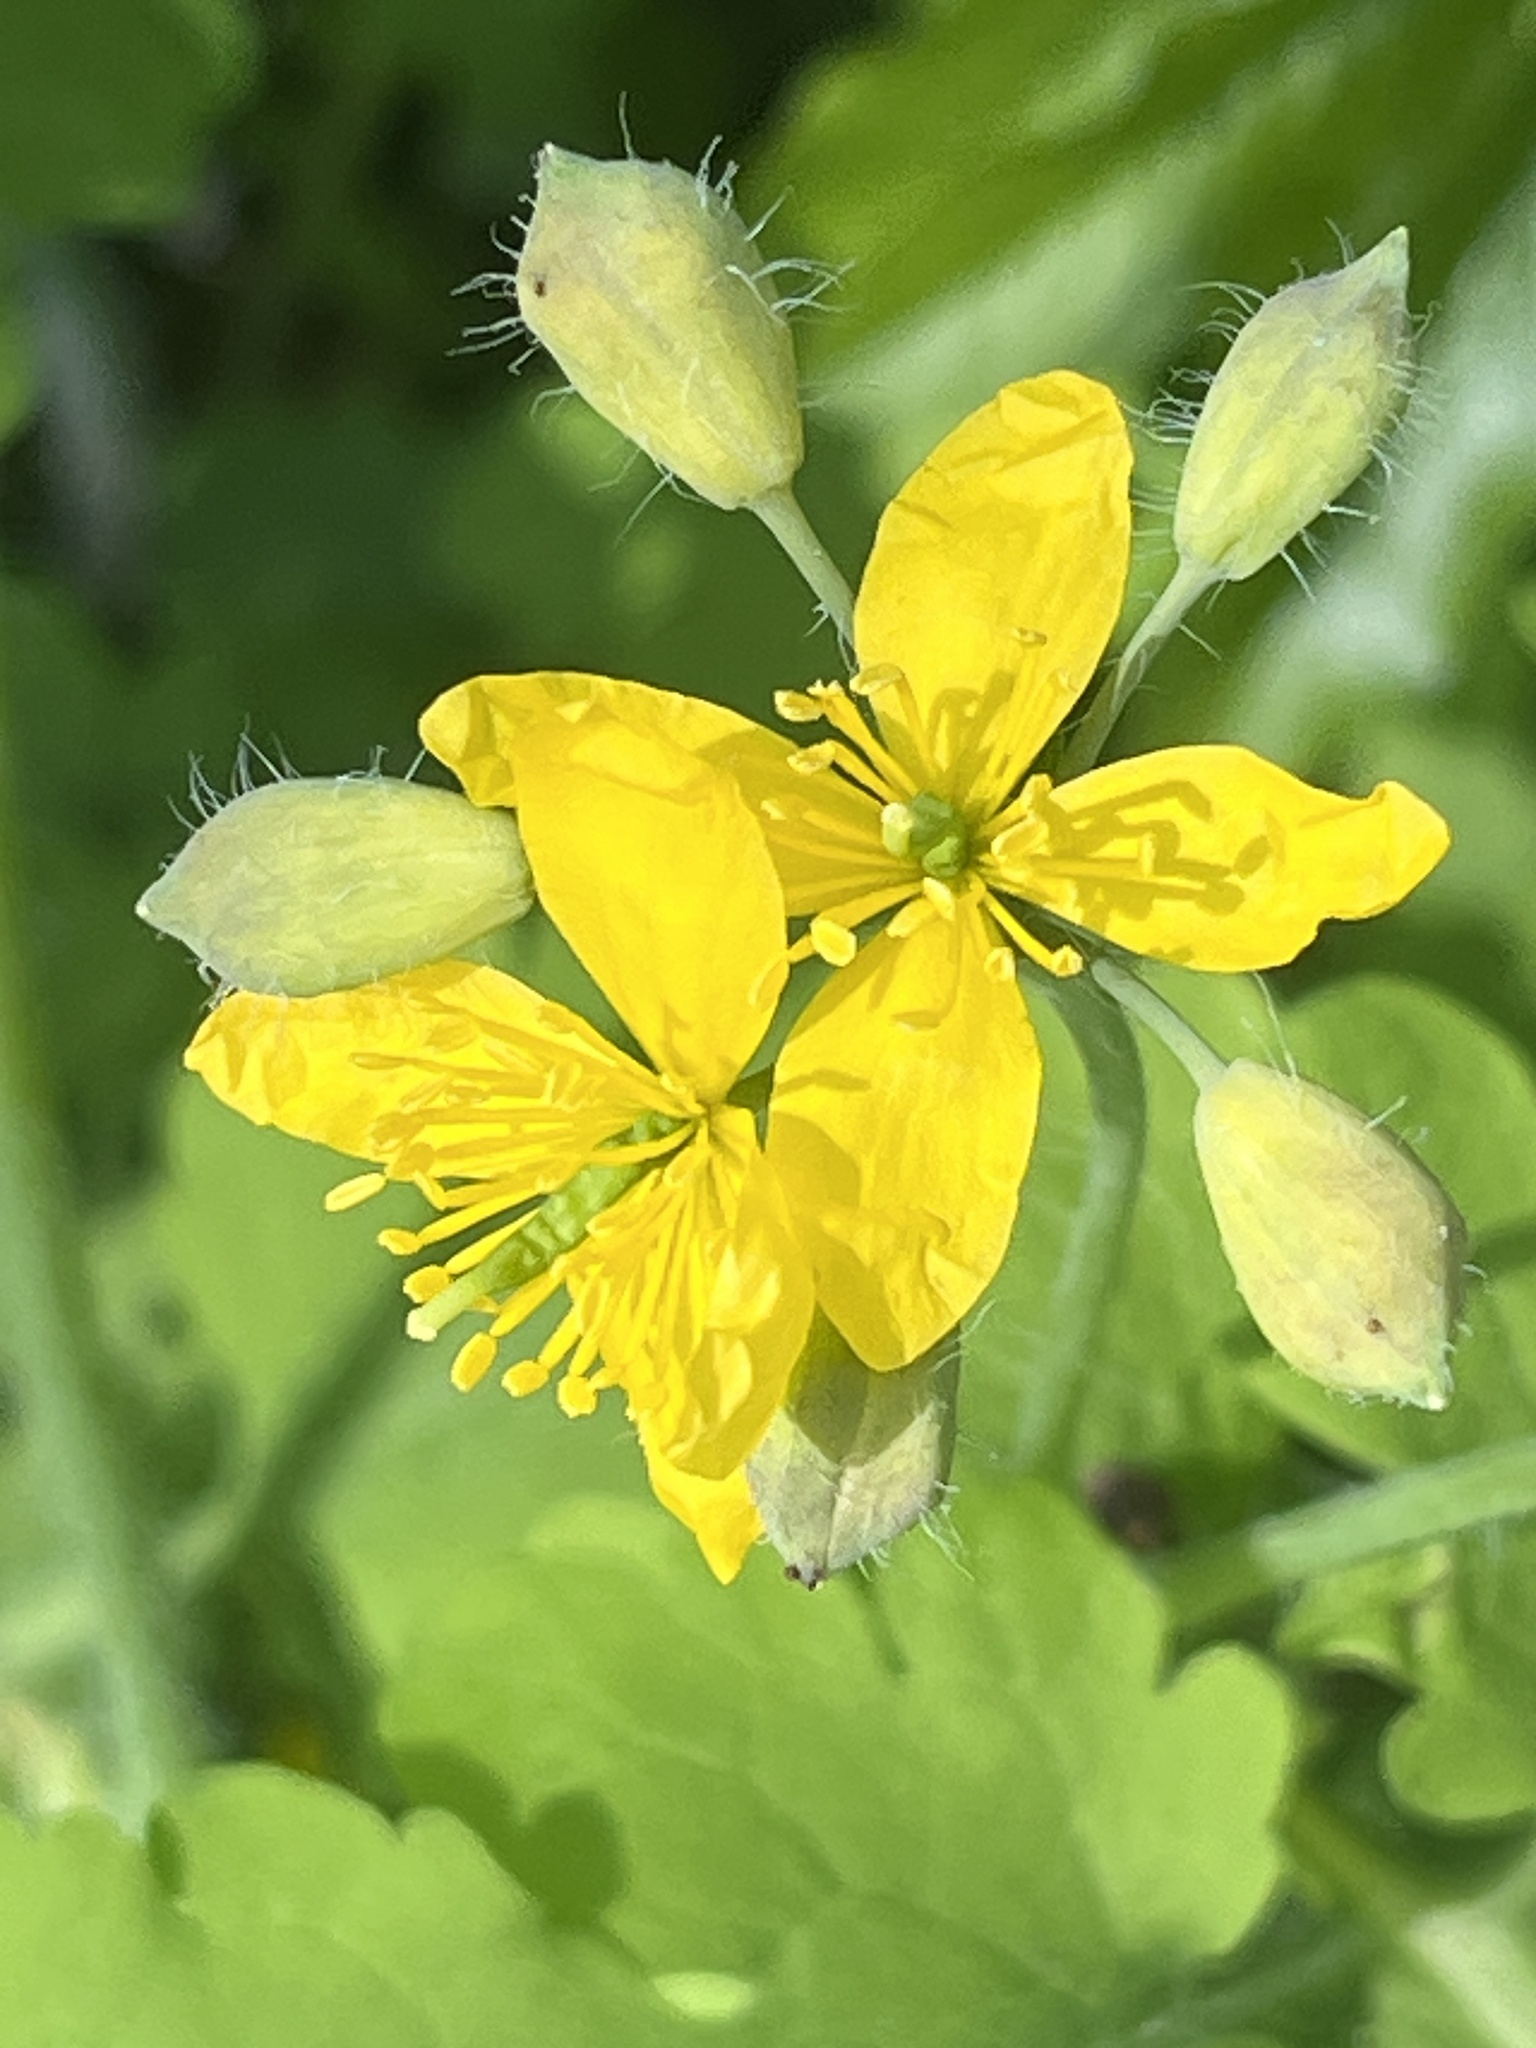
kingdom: Plantae
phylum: Tracheophyta
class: Magnoliopsida
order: Ranunculales
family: Papaveraceae
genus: Chelidonium
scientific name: Chelidonium majus
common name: Greater celandine
